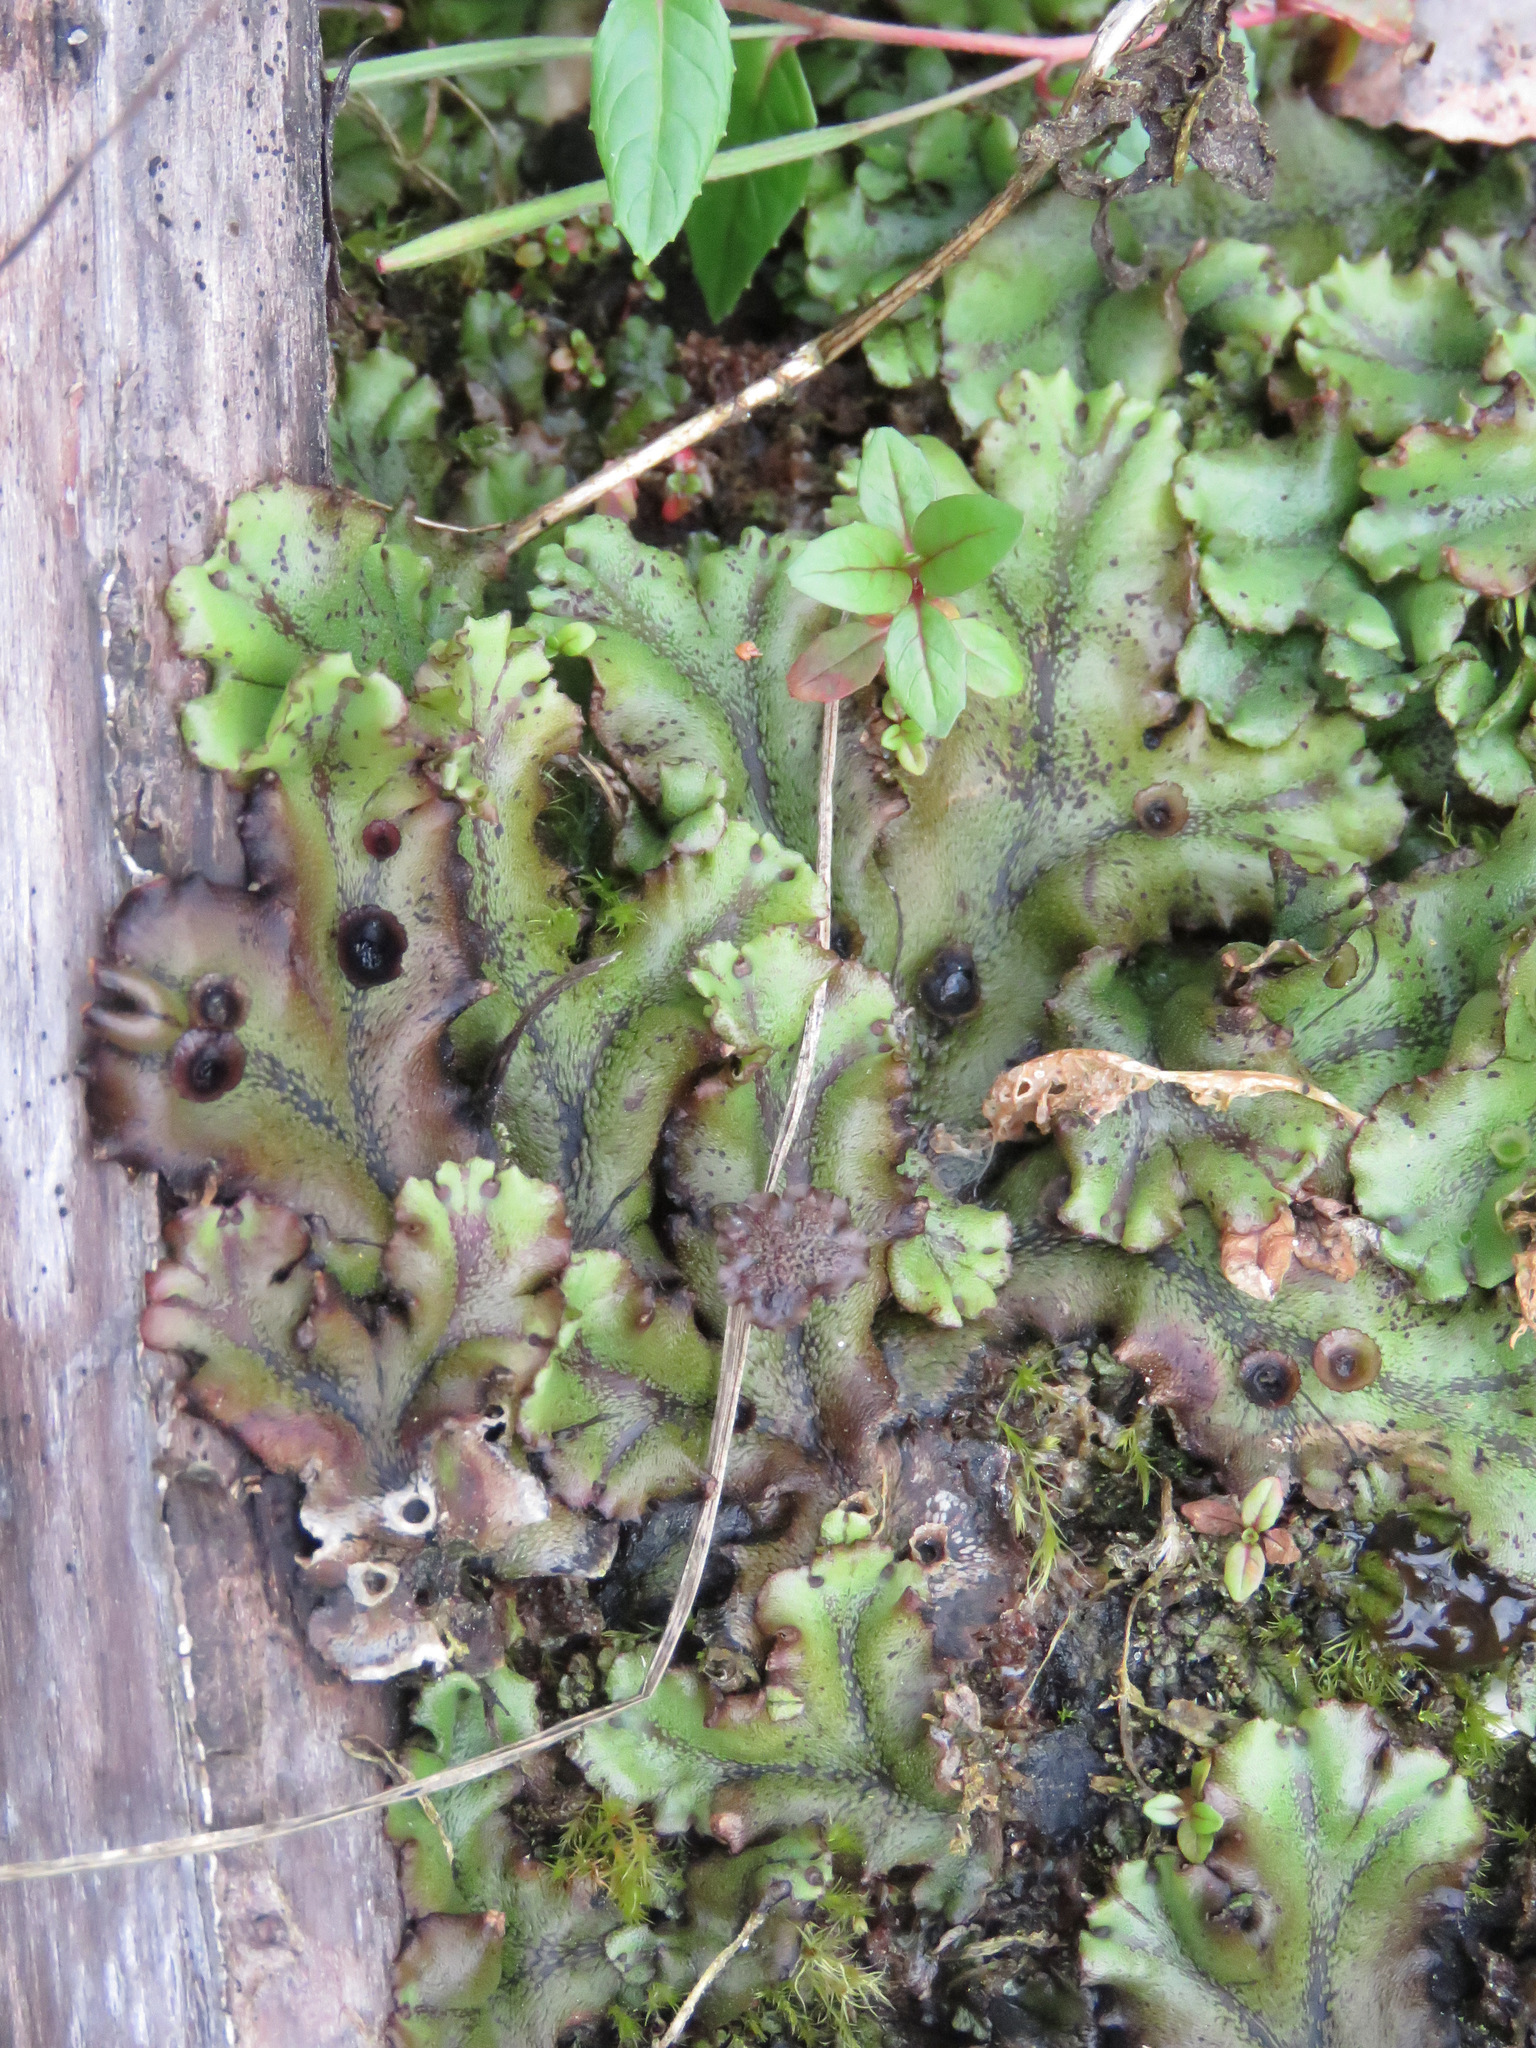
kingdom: Plantae
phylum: Marchantiophyta
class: Marchantiopsida
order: Marchantiales
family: Marchantiaceae
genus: Marchantia
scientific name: Marchantia polymorpha
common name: Common liverwort
